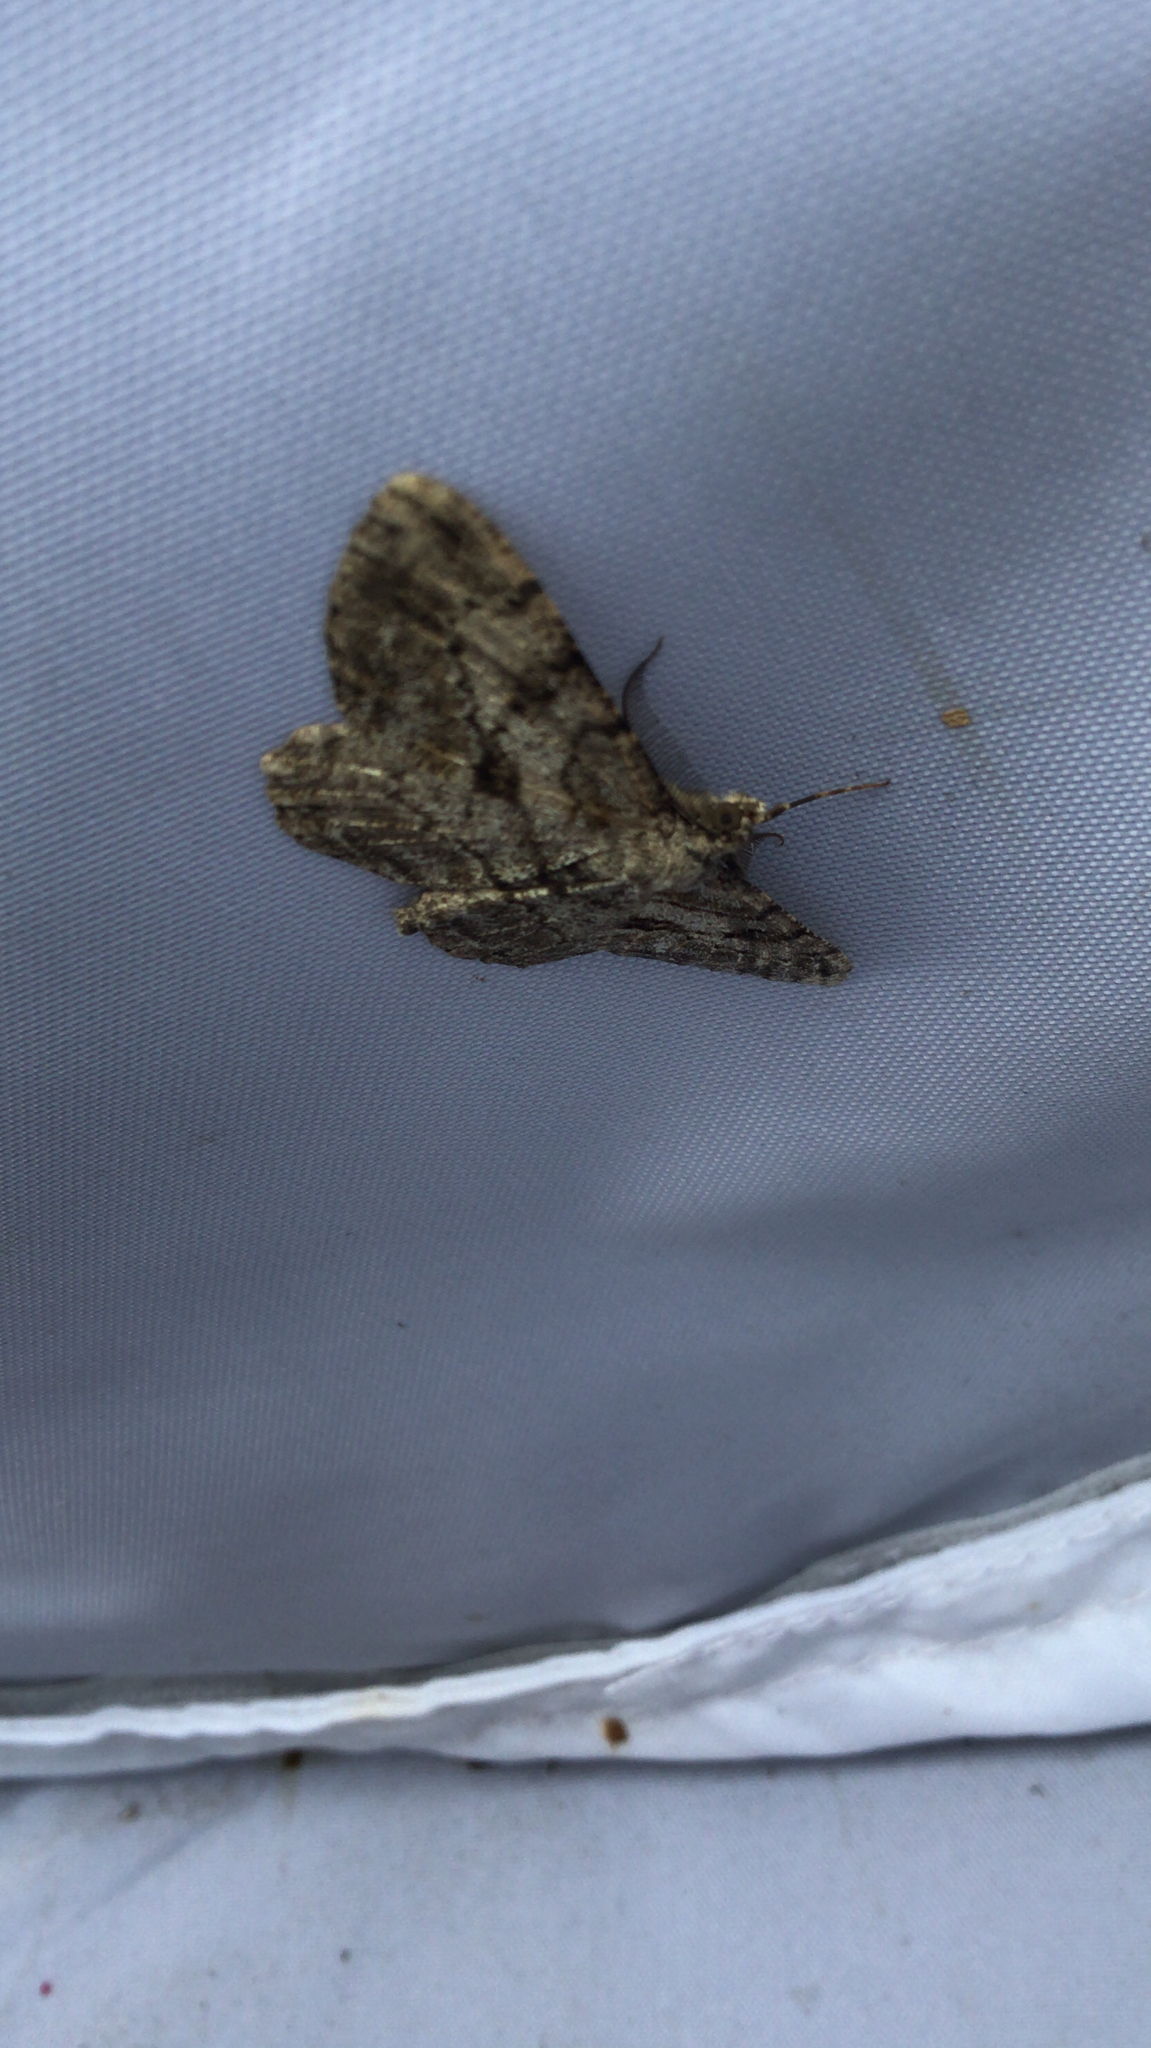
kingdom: Animalia
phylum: Arthropoda
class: Insecta
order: Lepidoptera
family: Geometridae
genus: Peribatodes
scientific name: Peribatodes rhomboidaria
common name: Willow beauty
